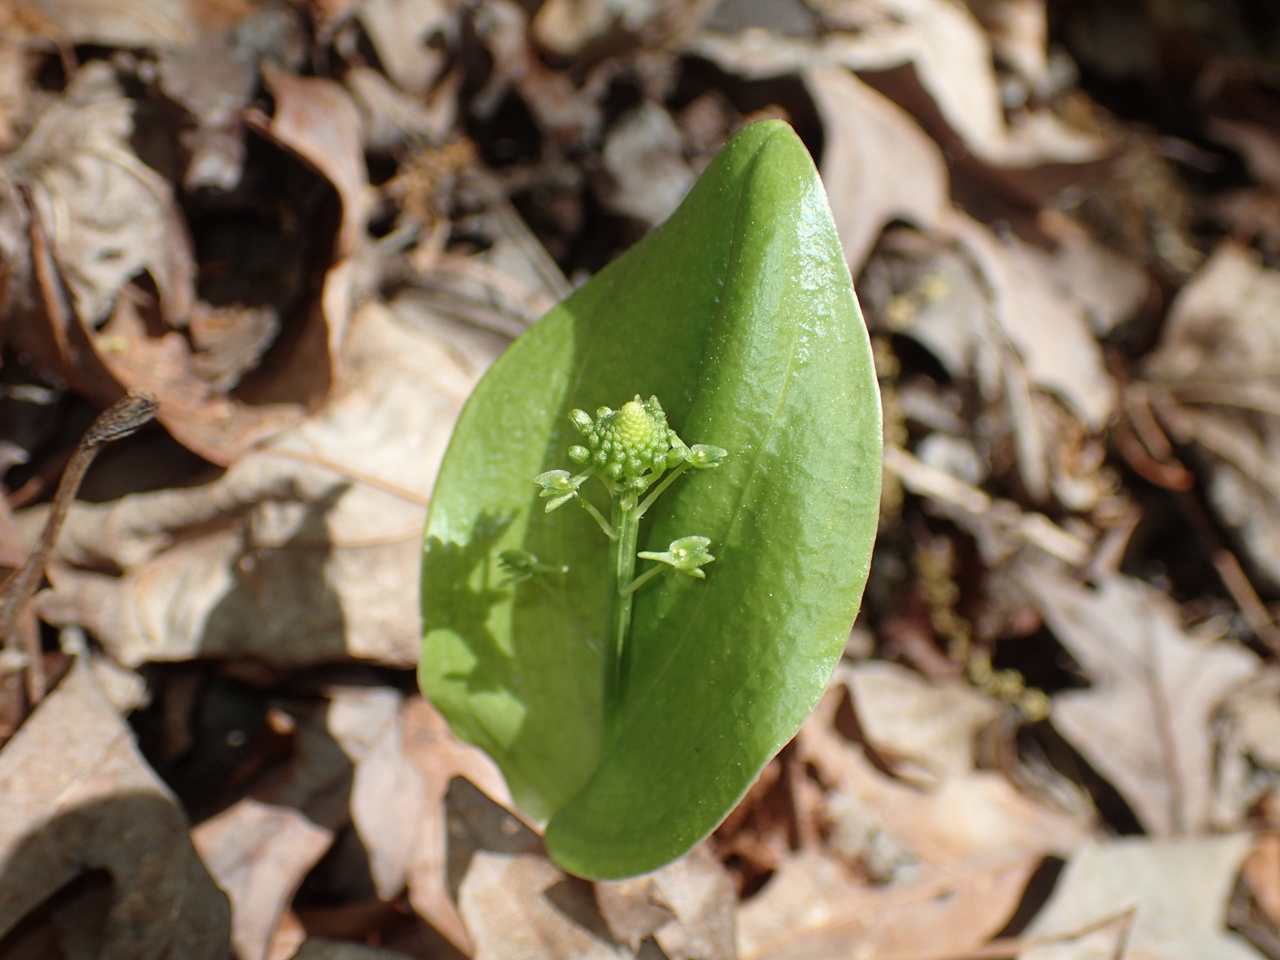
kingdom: Plantae
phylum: Tracheophyta
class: Liliopsida
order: Asparagales
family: Orchidaceae
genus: Malaxis
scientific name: Malaxis unifolia
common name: Green adder's-mouth
